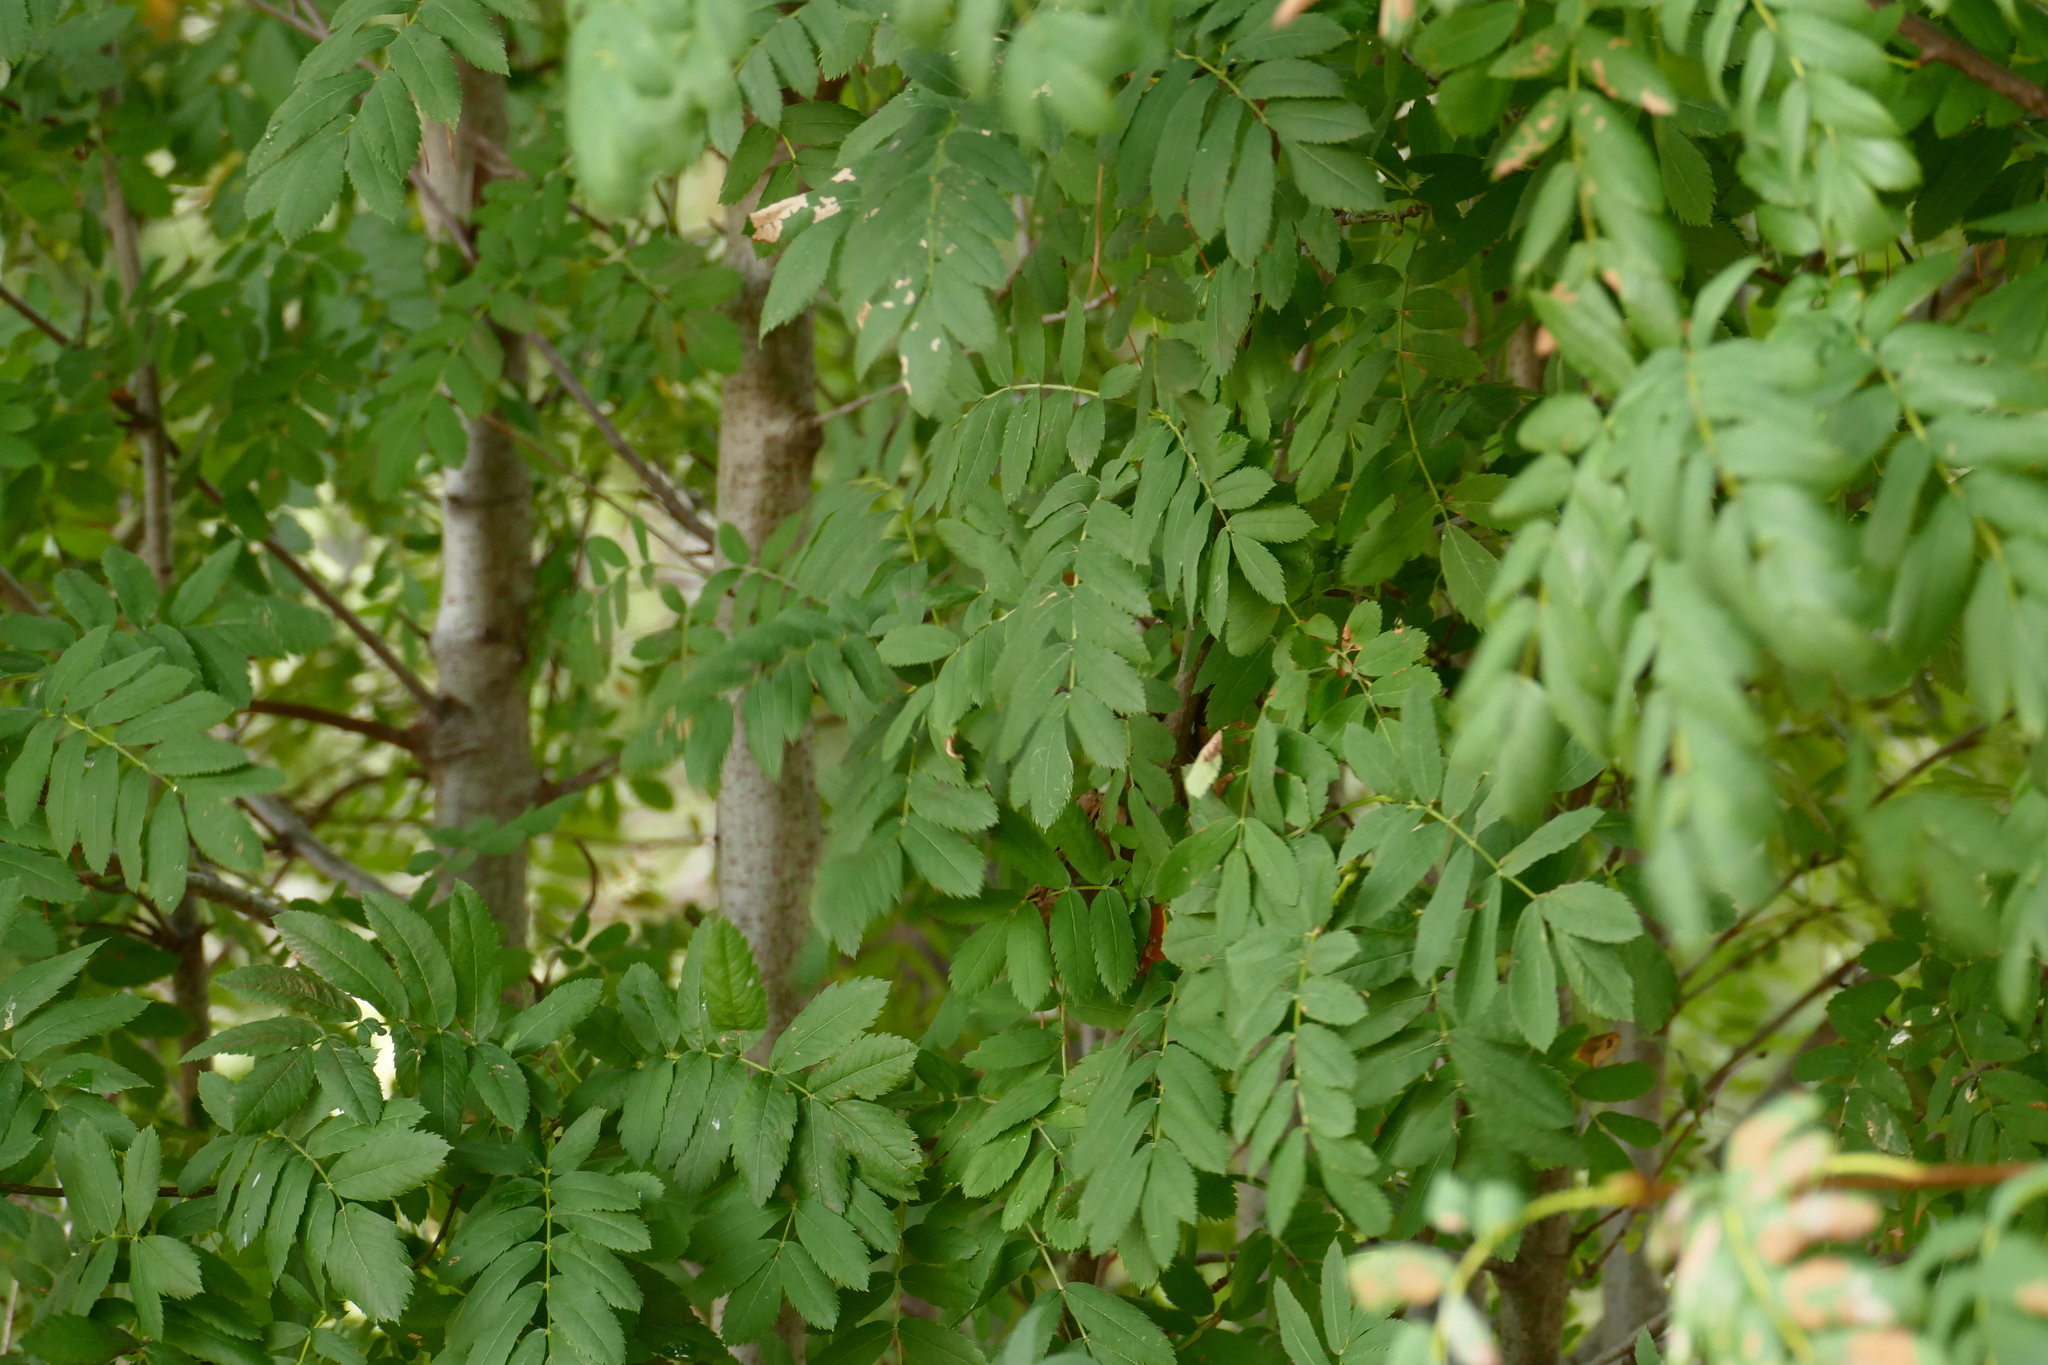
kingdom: Plantae
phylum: Tracheophyta
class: Magnoliopsida
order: Rosales
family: Rosaceae
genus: Cormus
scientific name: Cormus domestica
